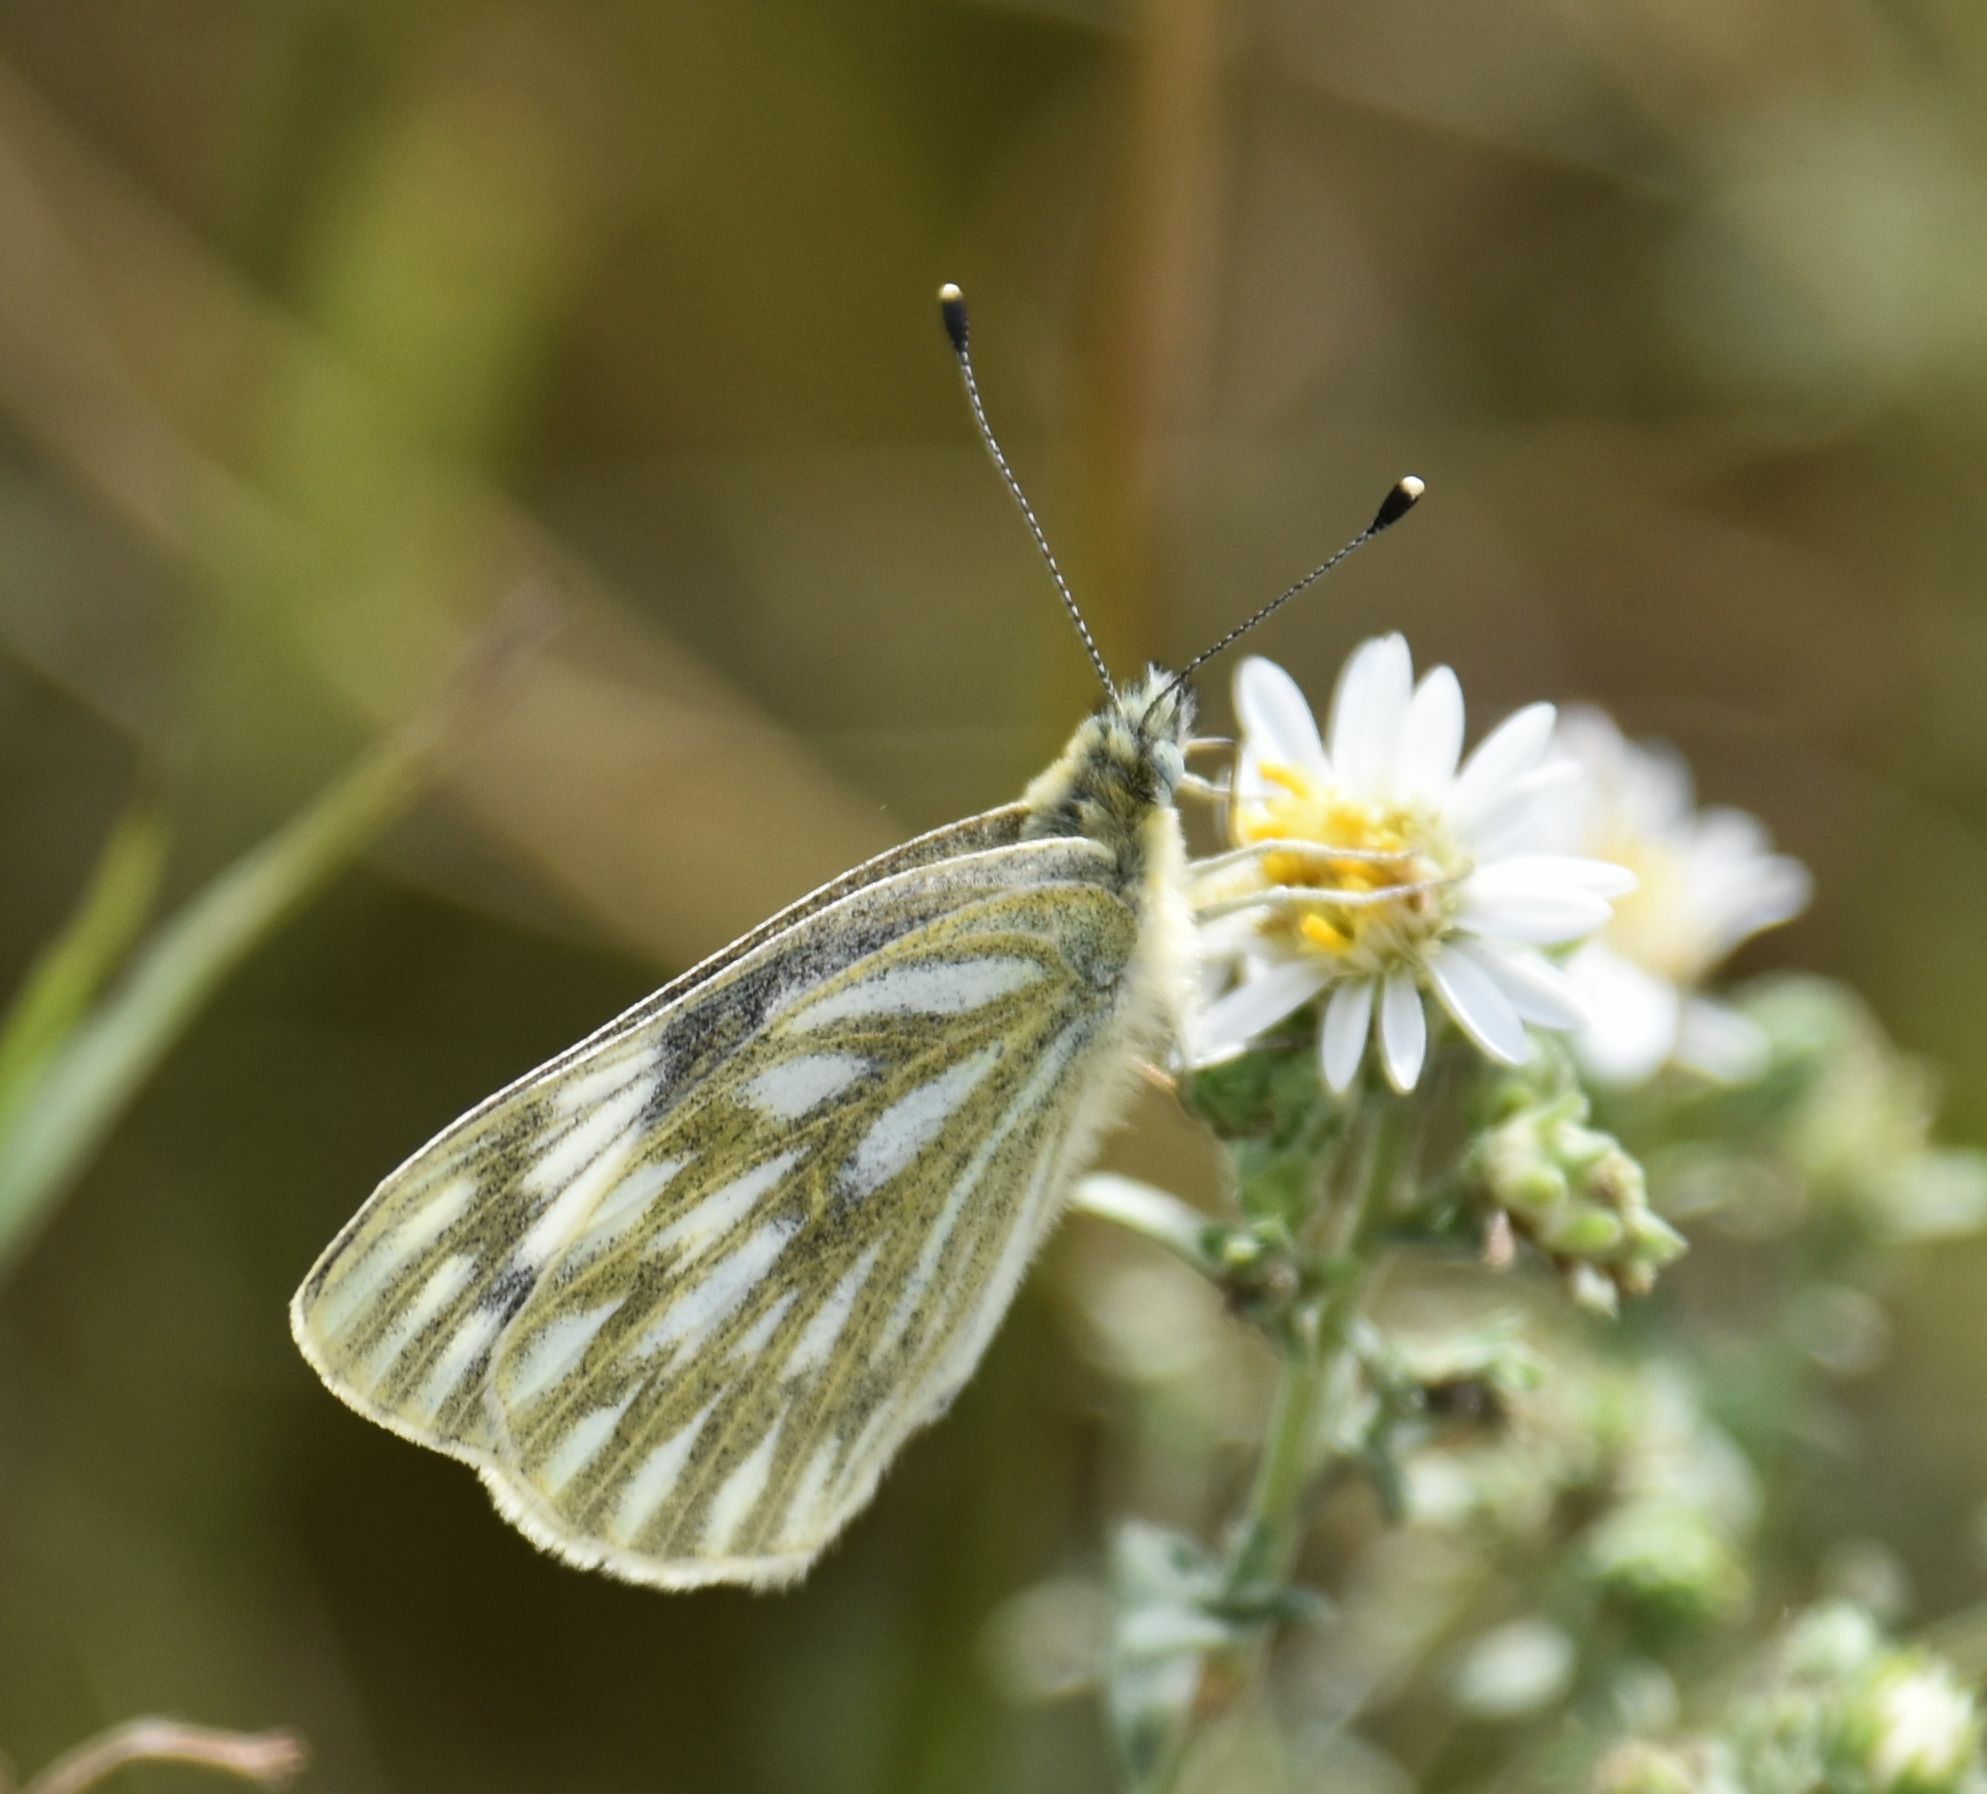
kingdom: Animalia
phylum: Arthropoda
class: Insecta
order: Lepidoptera
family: Pieridae
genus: Pontia
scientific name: Pontia occidentalis
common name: Western white
